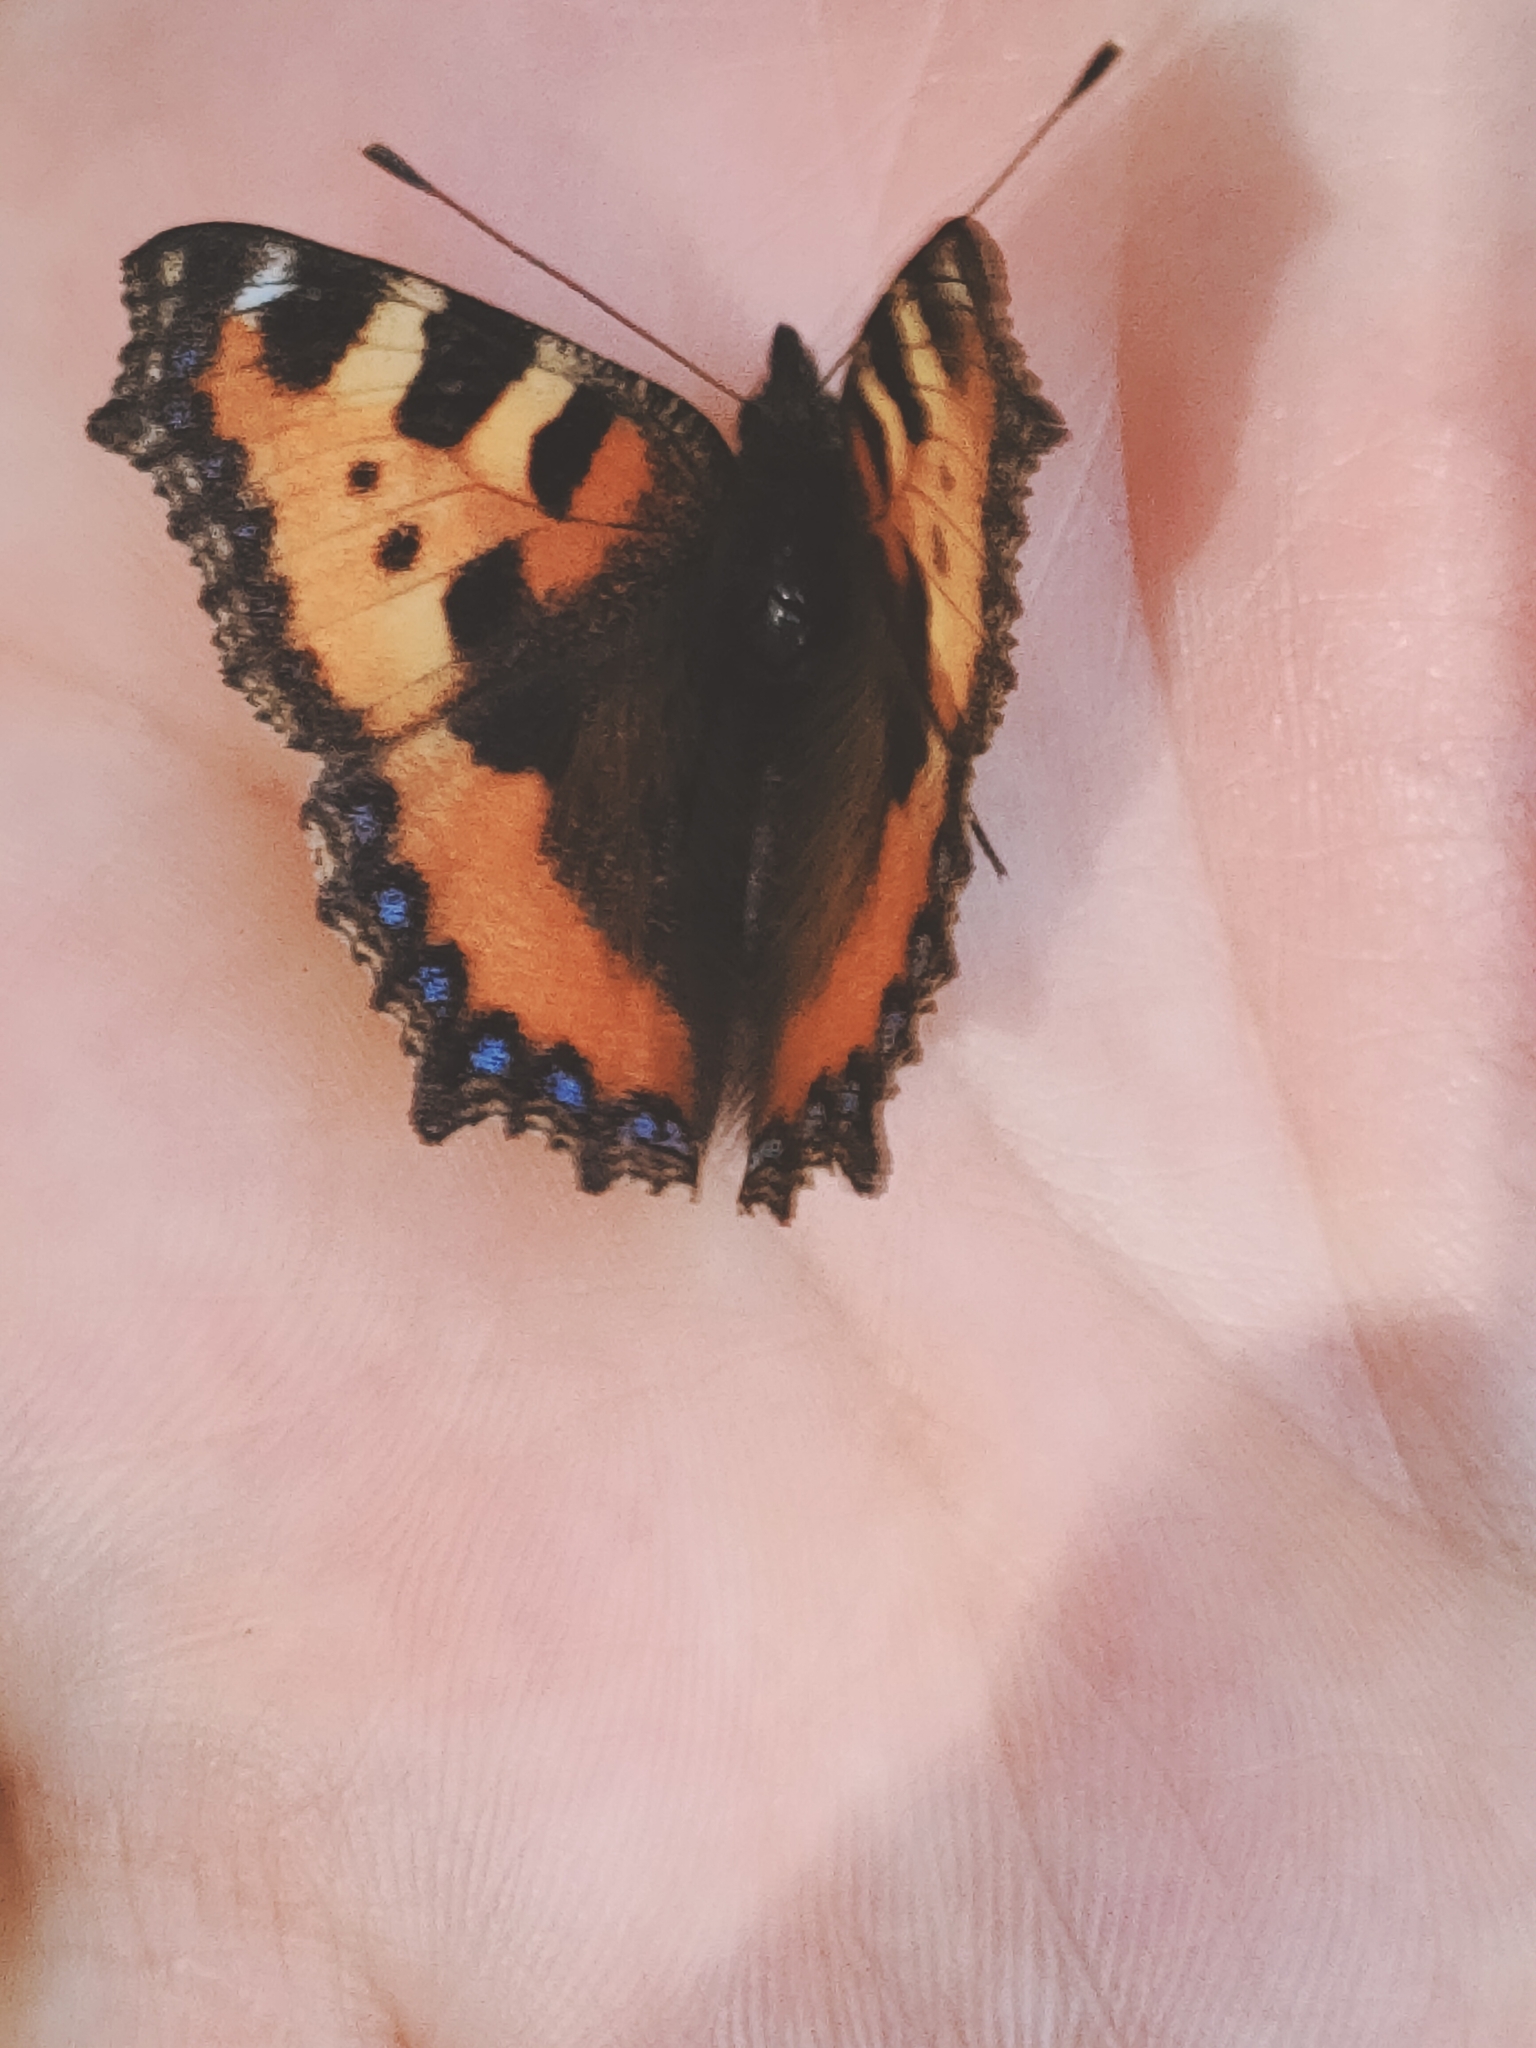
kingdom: Animalia
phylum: Arthropoda
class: Insecta
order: Lepidoptera
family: Nymphalidae
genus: Aglais
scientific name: Aglais urticae
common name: Small tortoiseshell
